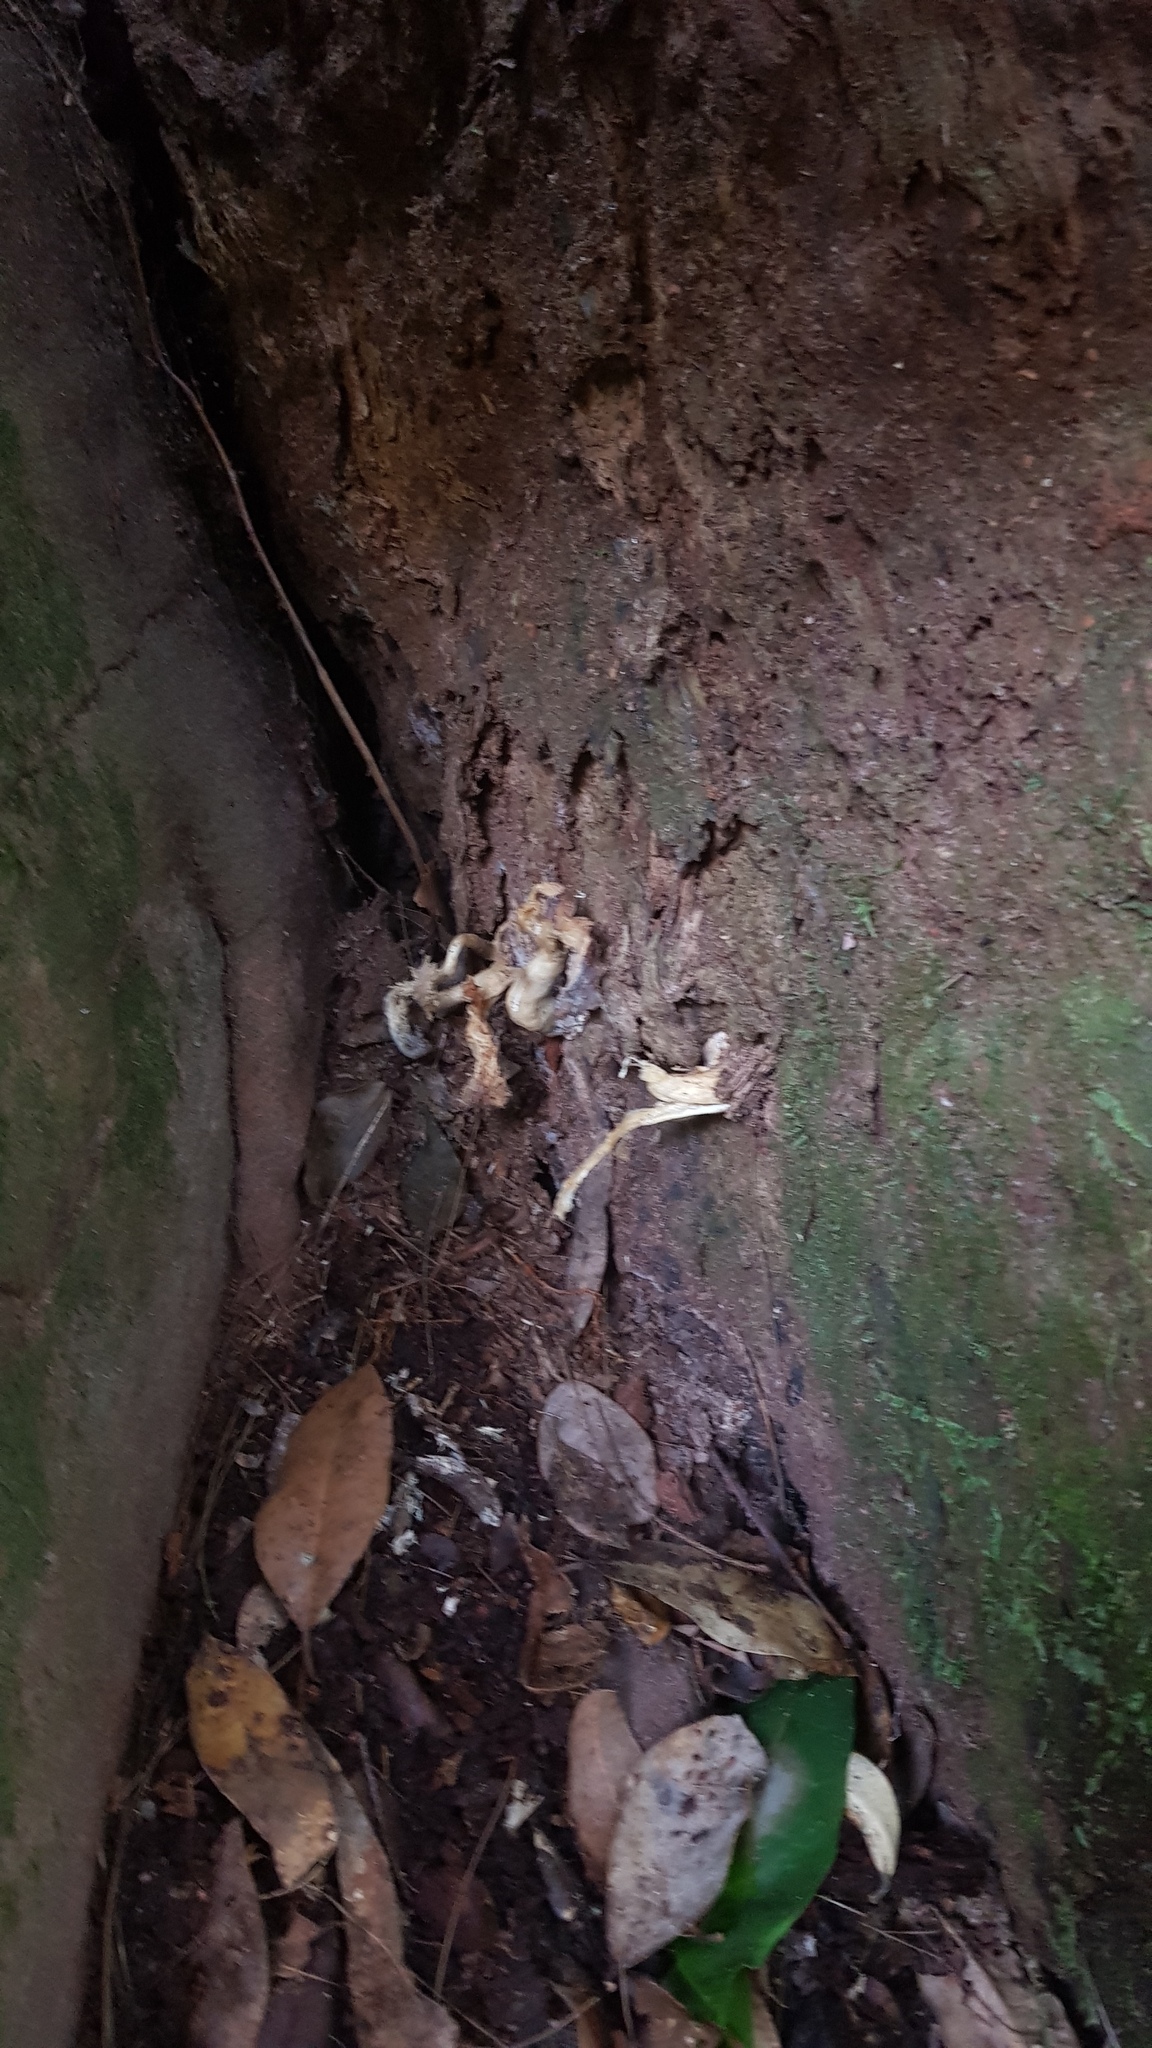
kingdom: Fungi
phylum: Basidiomycota
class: Agaricomycetes
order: Agaricales
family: Omphalotaceae
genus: Omphalotus
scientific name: Omphalotus nidiformis
